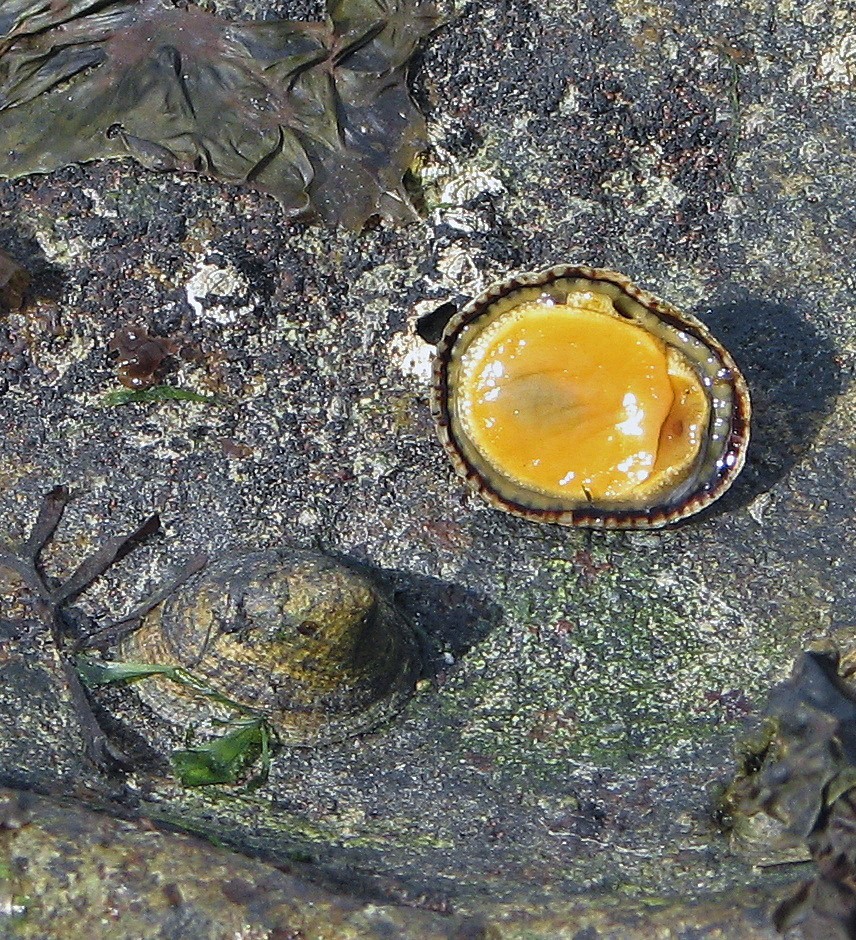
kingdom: Animalia
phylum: Mollusca
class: Gastropoda
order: Siphonariida
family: Siphonariidae
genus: Siphonaria
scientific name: Siphonaria lessonii
